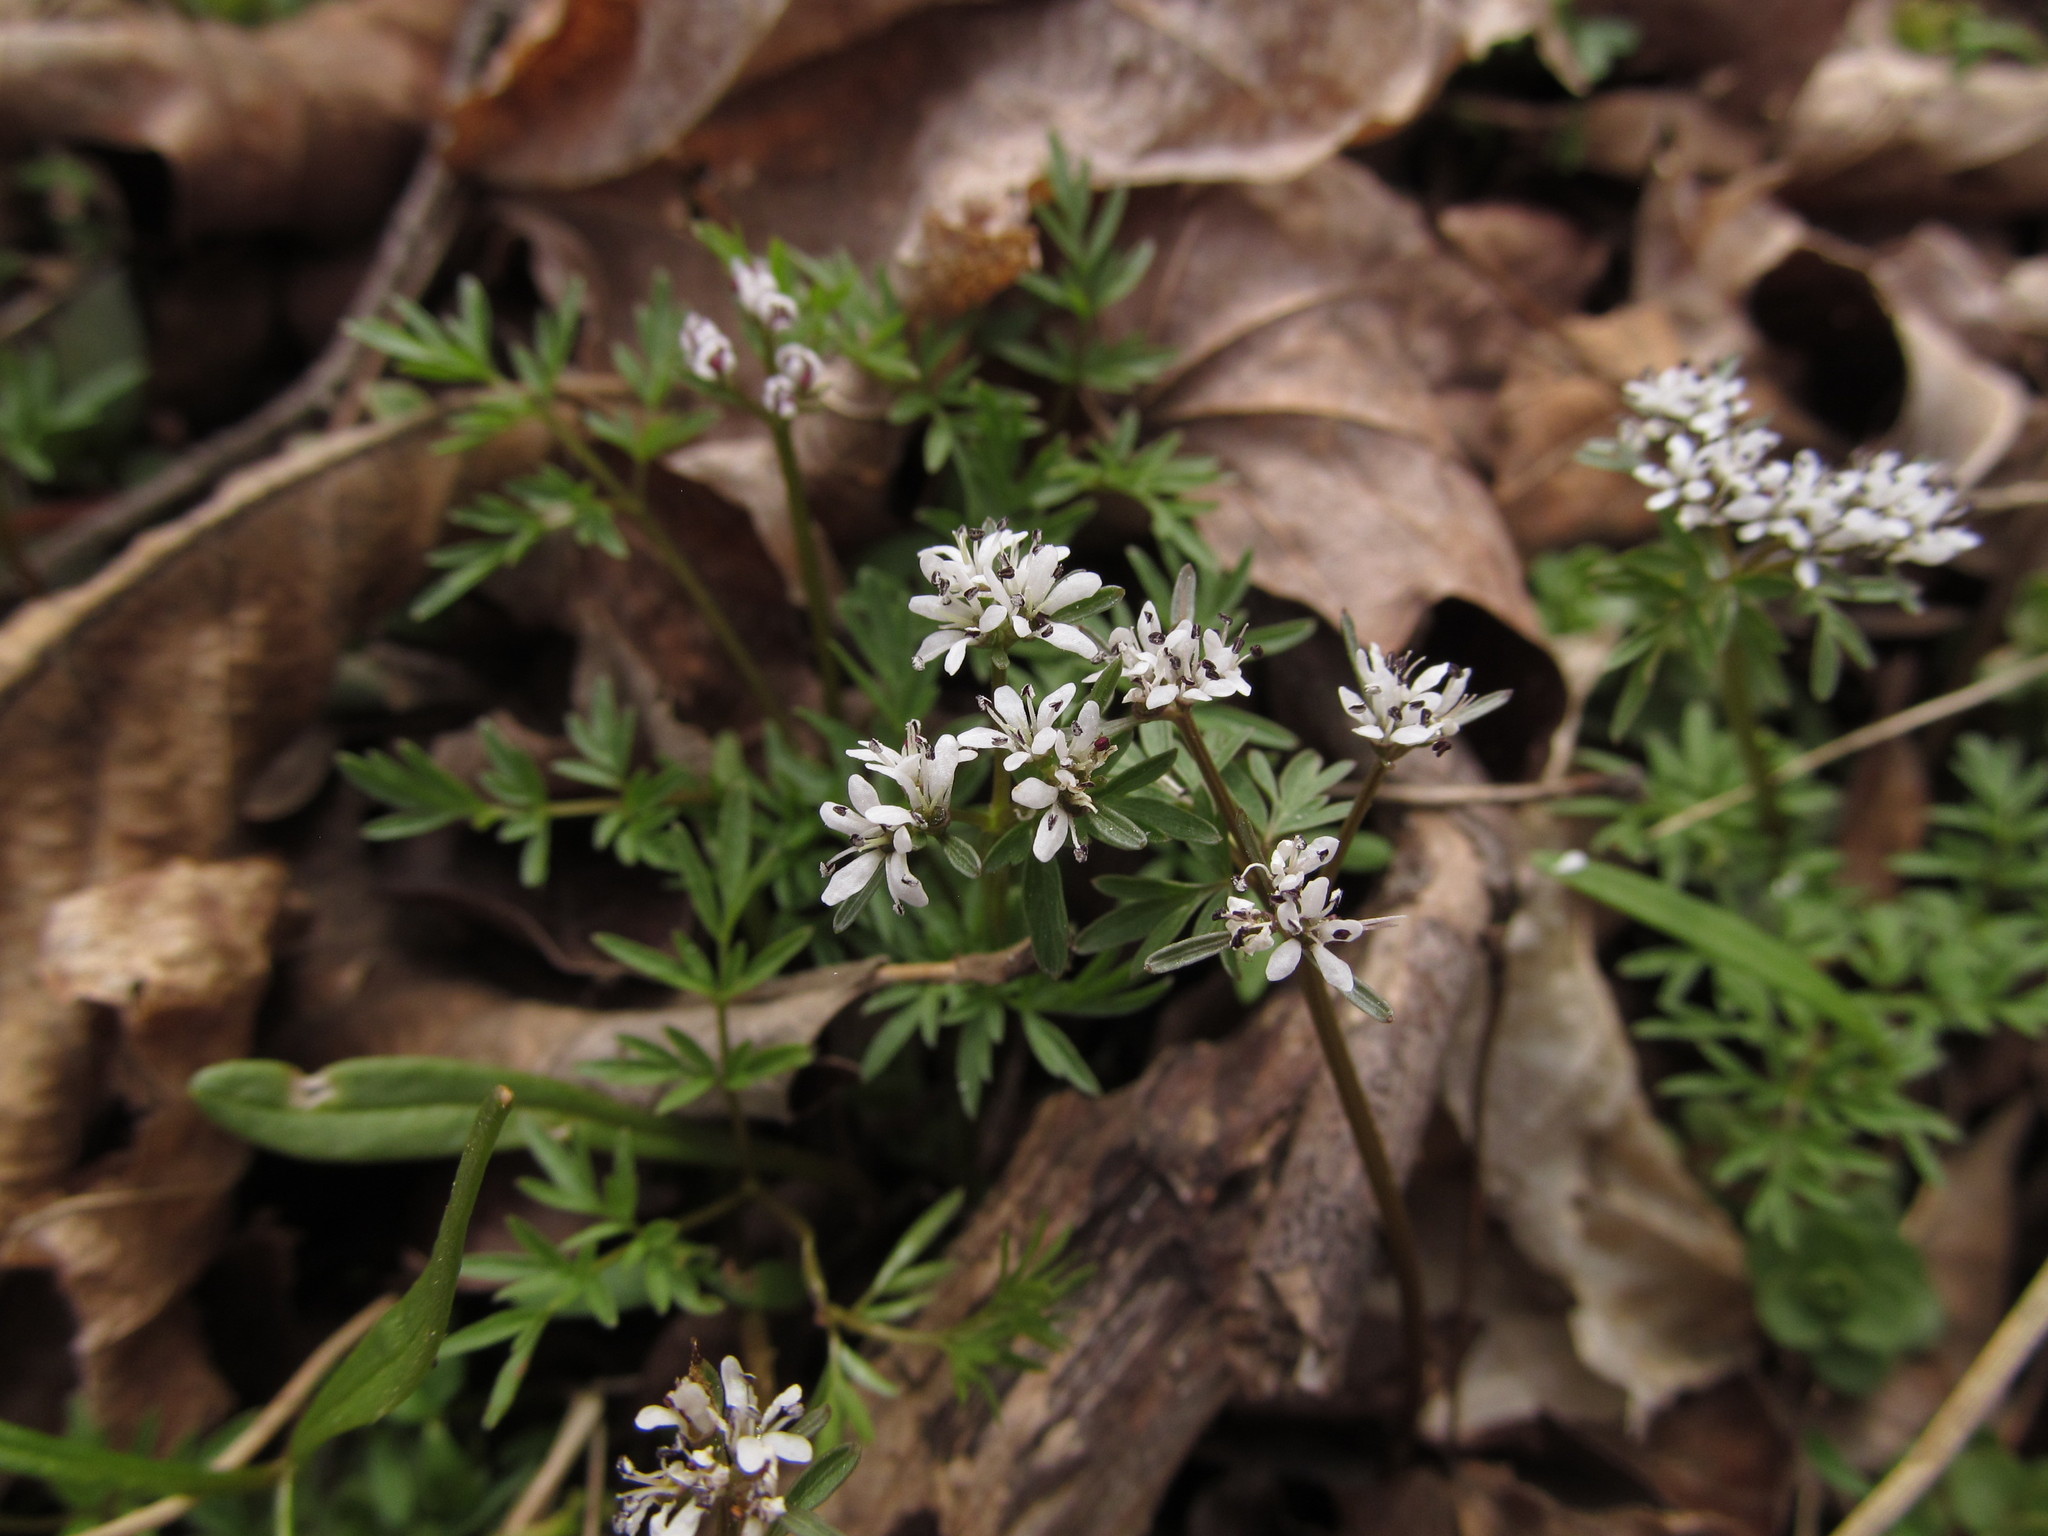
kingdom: Plantae
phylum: Tracheophyta
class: Magnoliopsida
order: Apiales
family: Apiaceae
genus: Erigenia
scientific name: Erigenia bulbosa
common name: Pepper-and-salt
